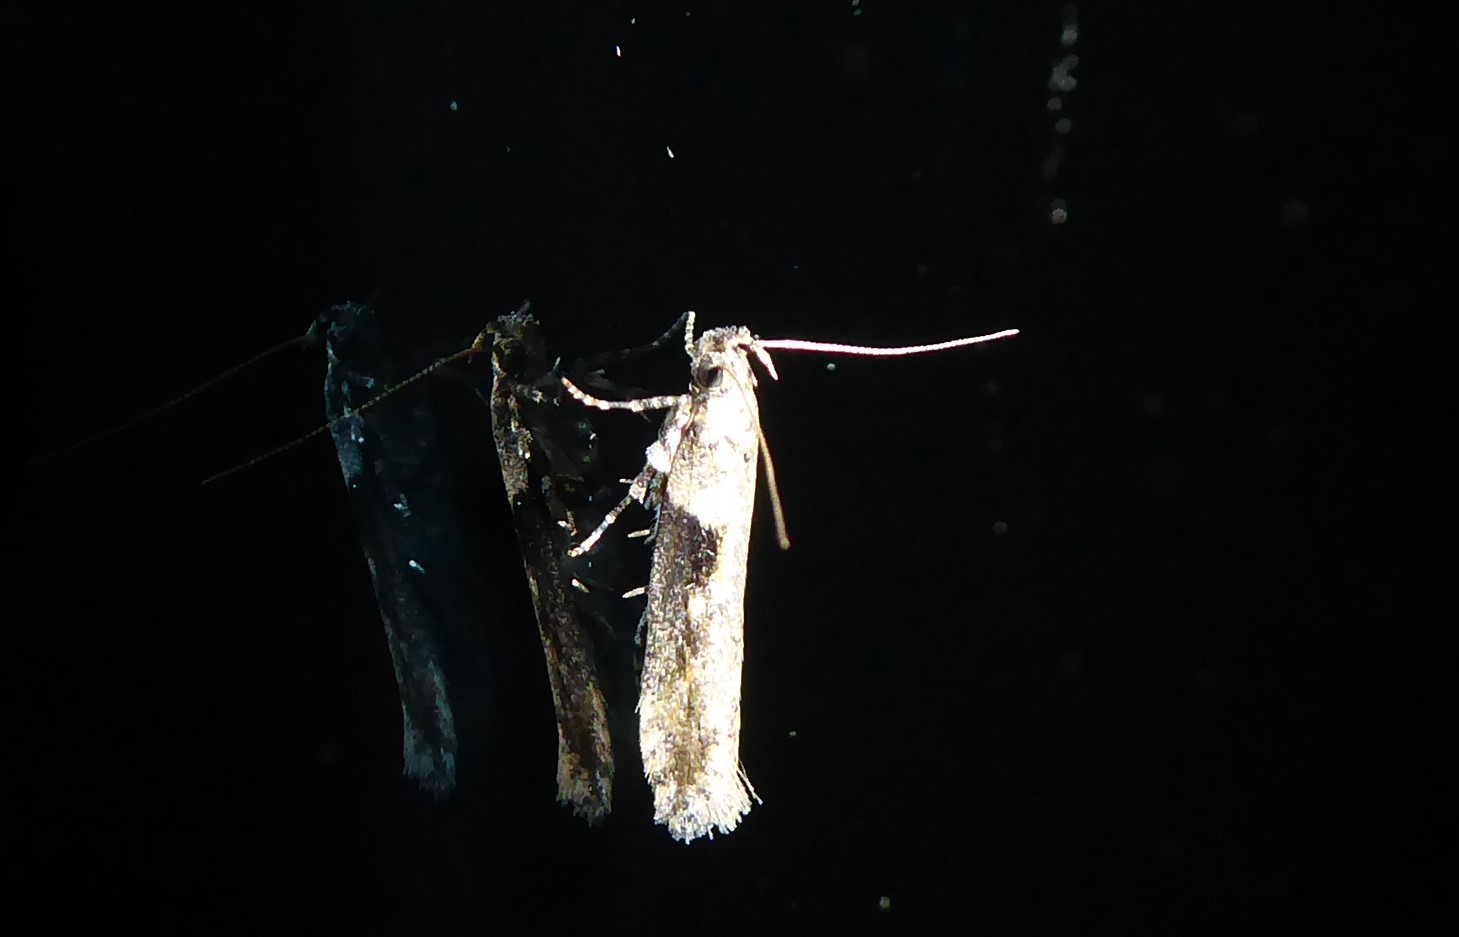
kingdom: Animalia
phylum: Arthropoda
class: Insecta
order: Lepidoptera
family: Gelechiidae
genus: Symmetrischema
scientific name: Symmetrischema tangolias
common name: Moth
